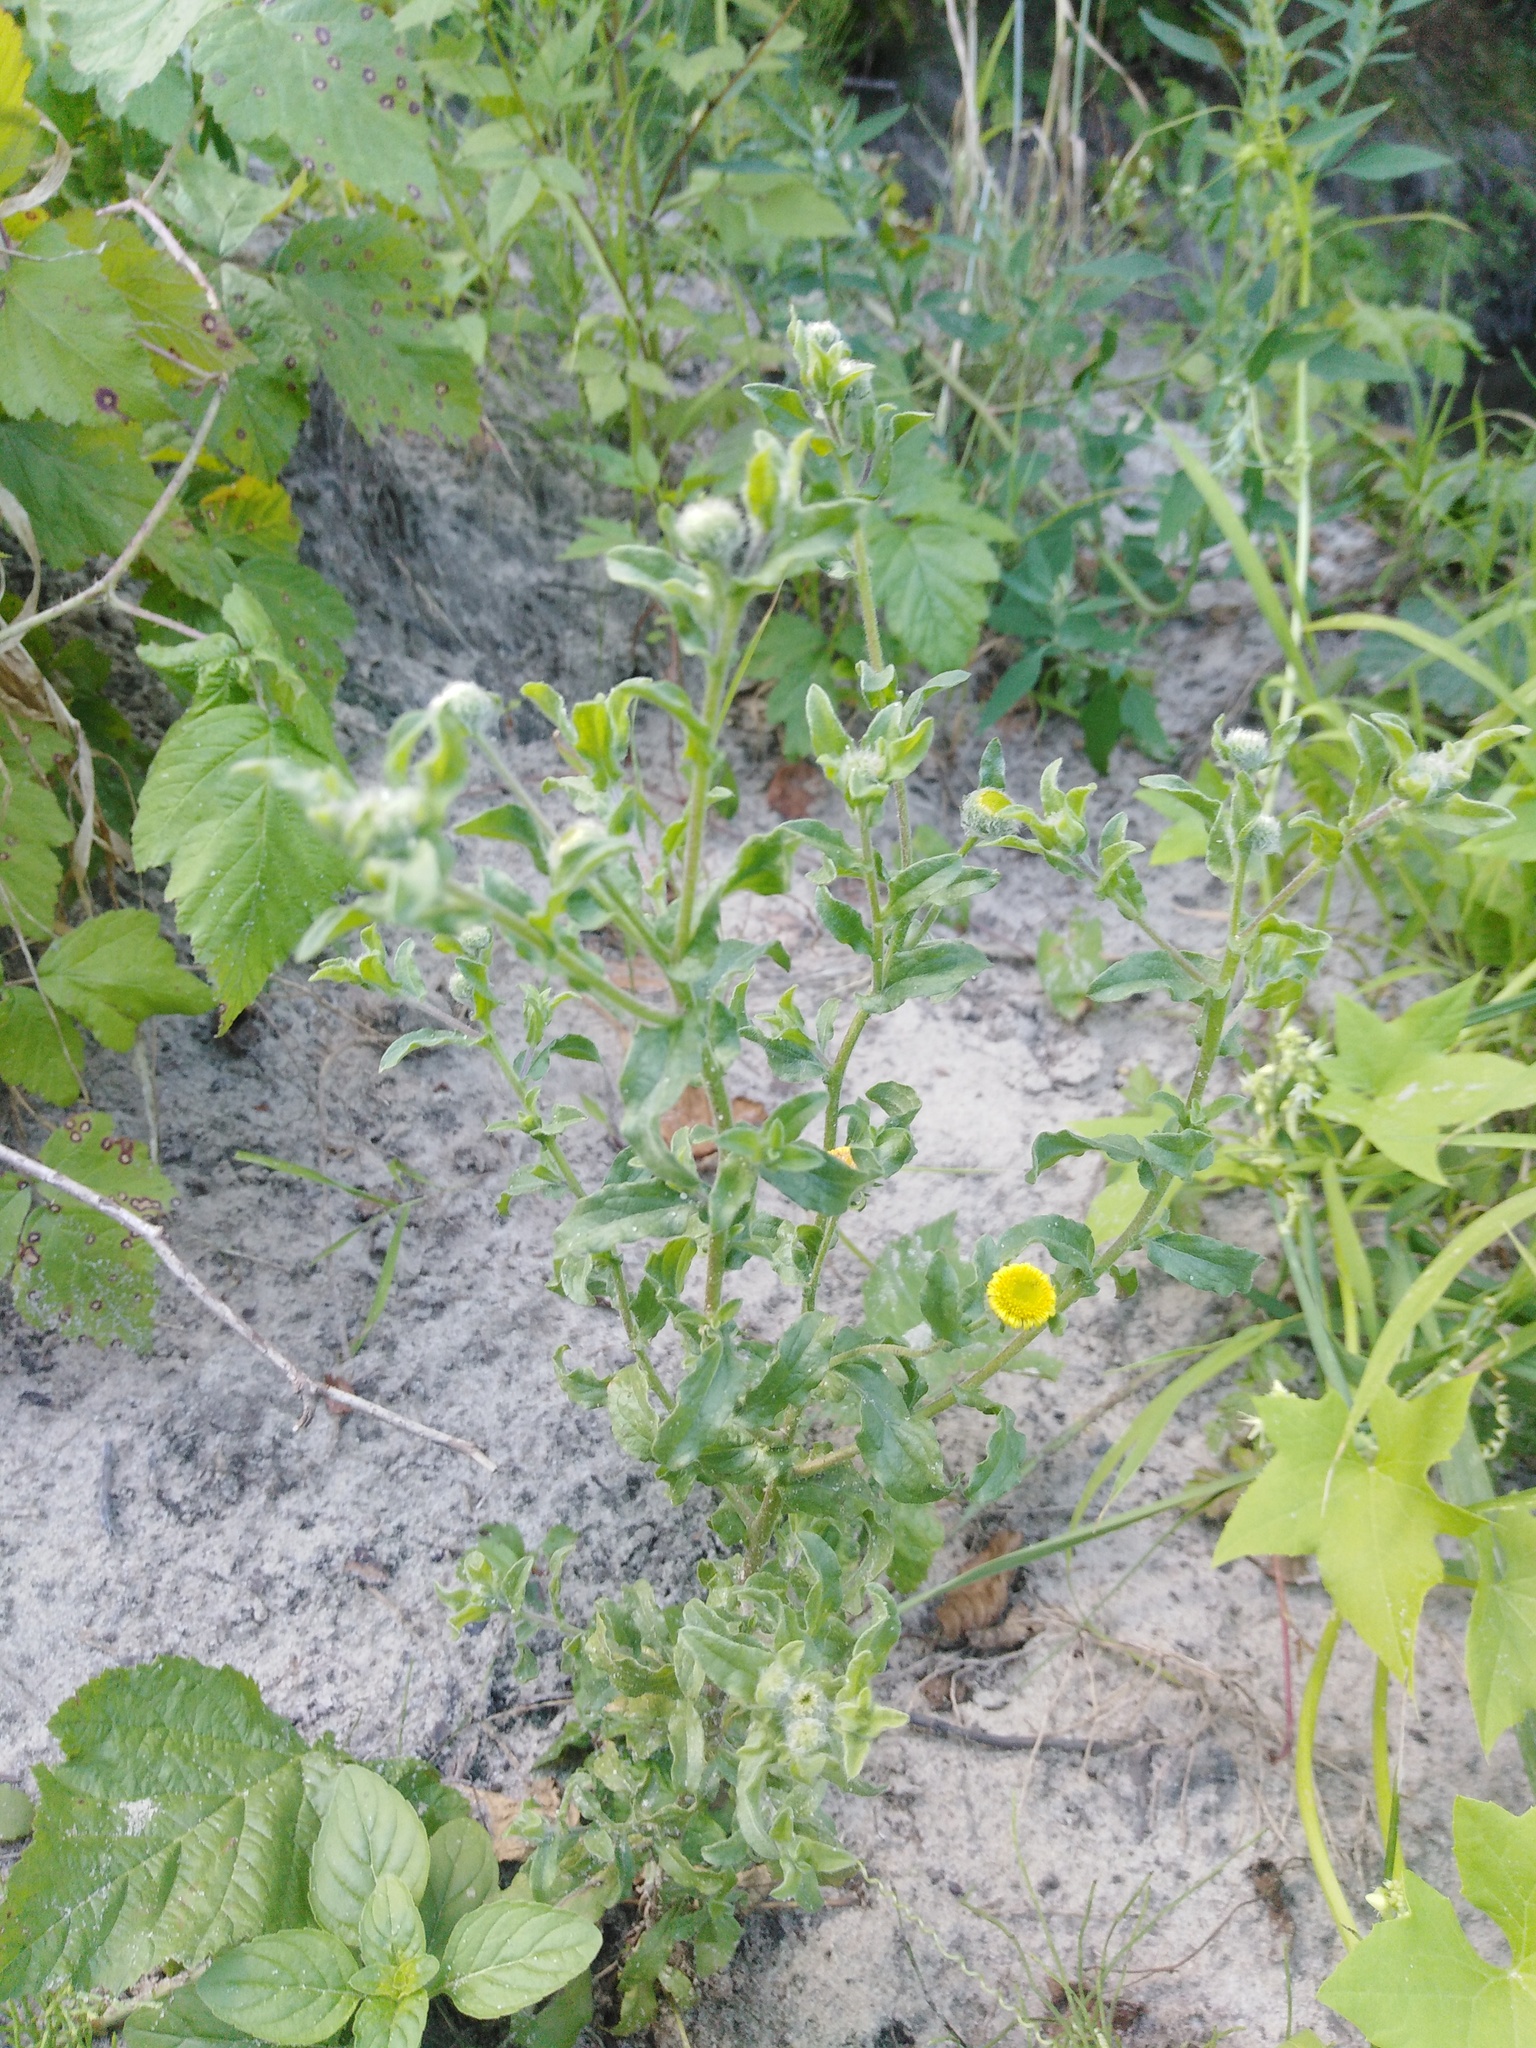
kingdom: Plantae
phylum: Tracheophyta
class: Magnoliopsida
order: Asterales
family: Asteraceae
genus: Pulicaria
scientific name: Pulicaria vulgaris
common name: Small fleabane
